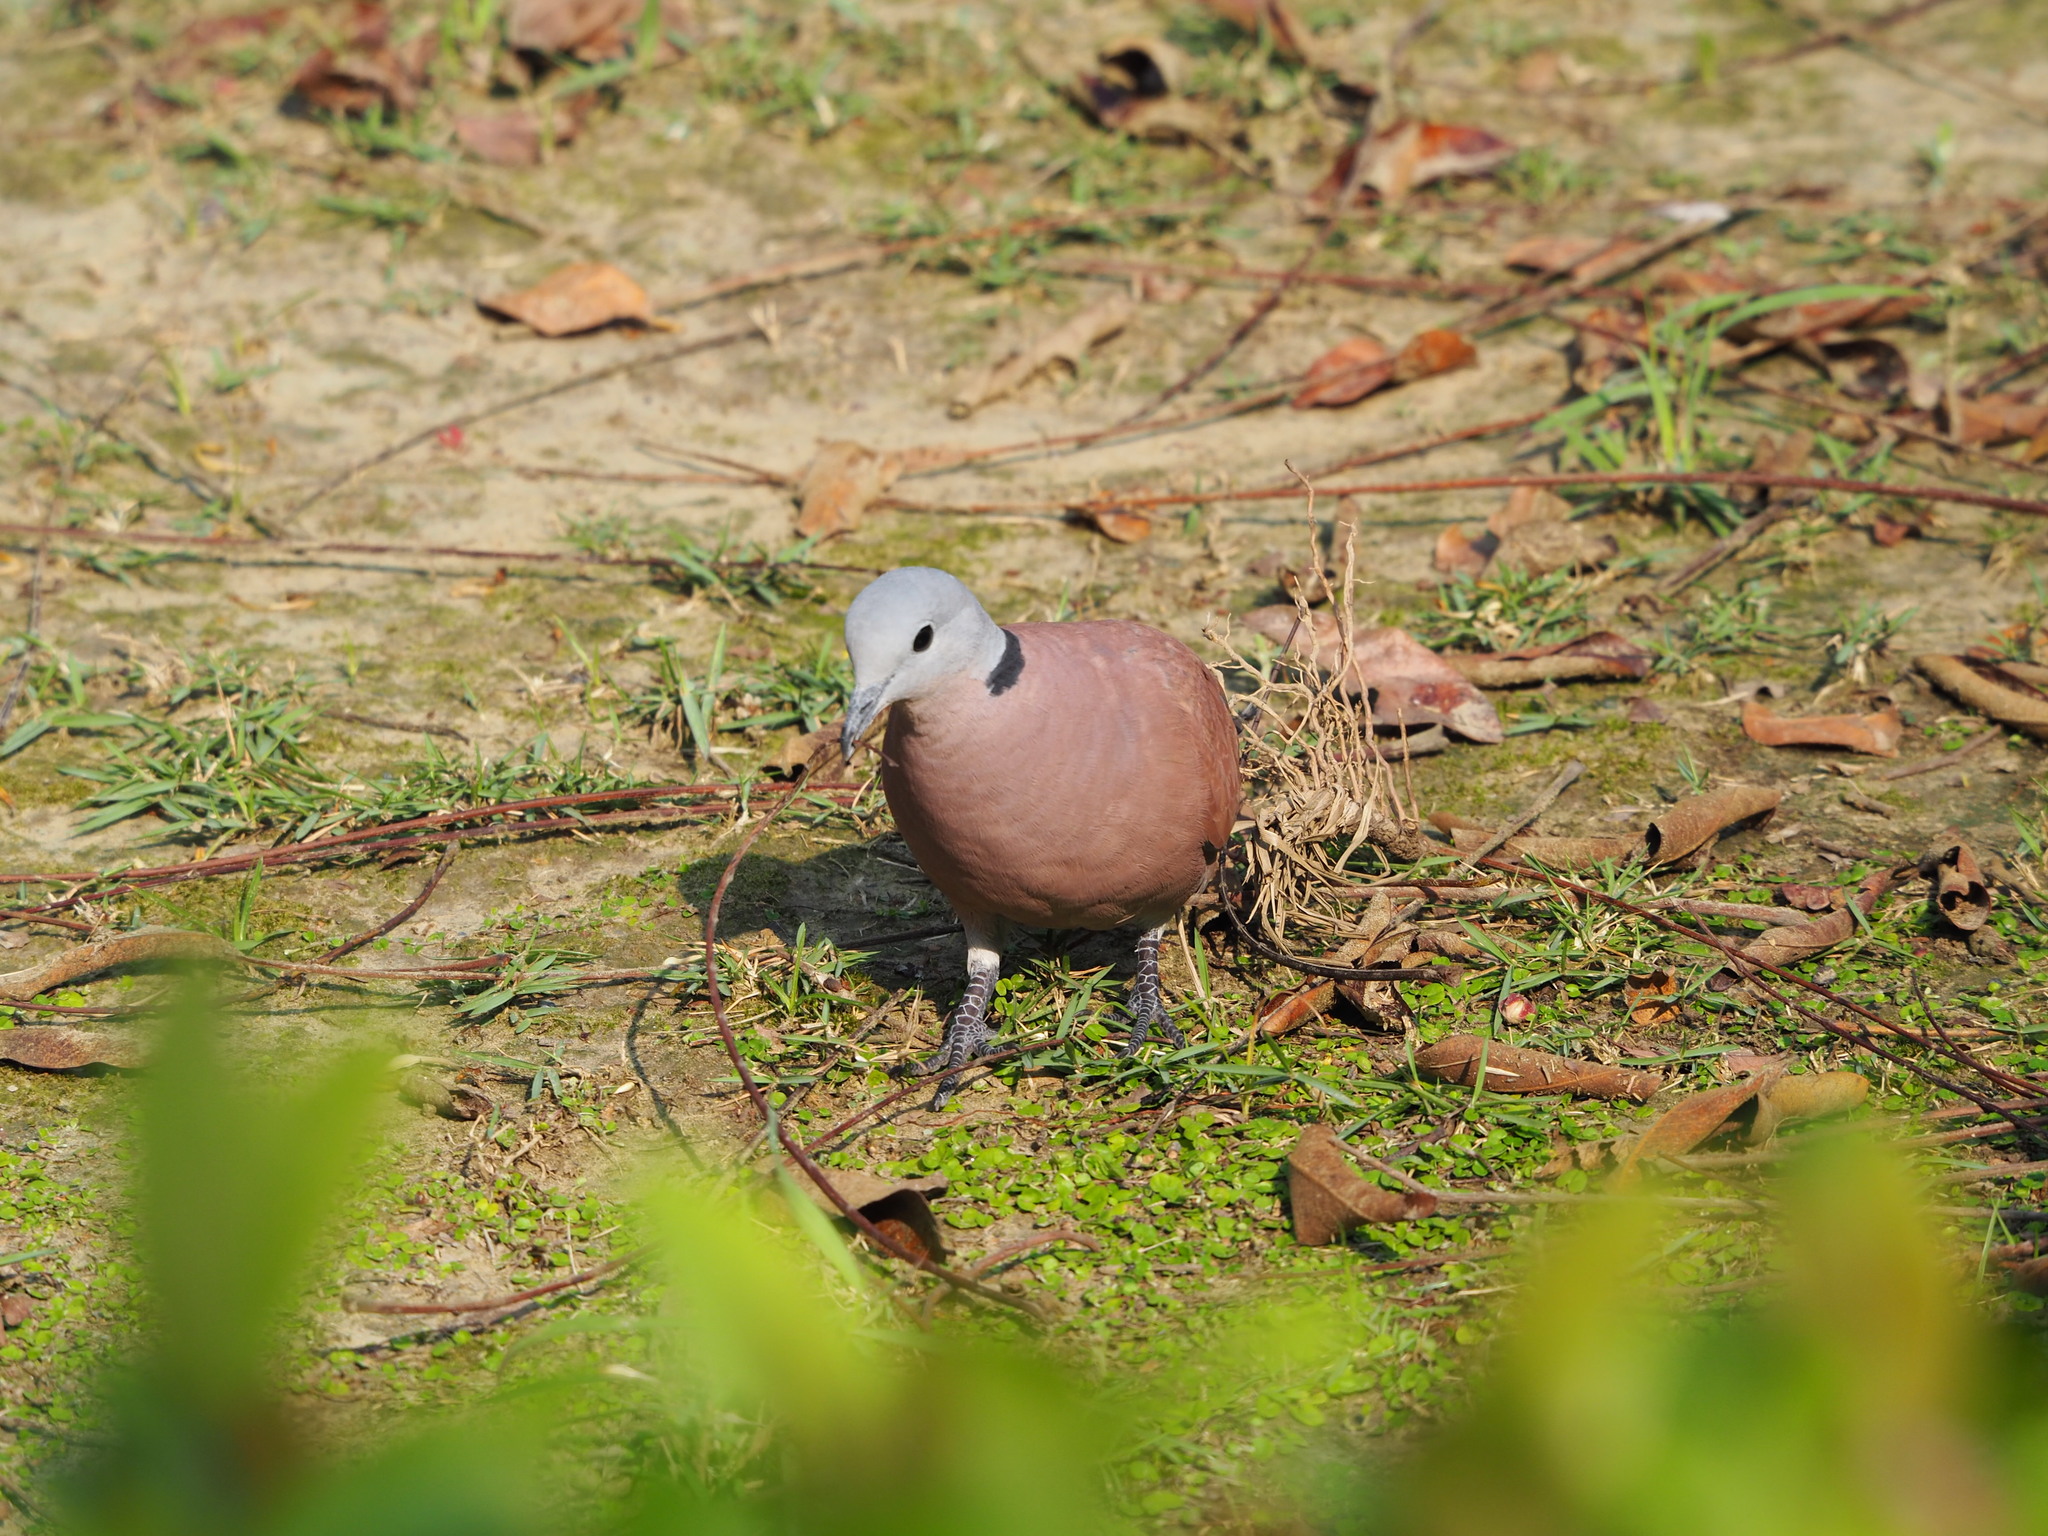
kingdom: Animalia
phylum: Chordata
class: Aves
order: Columbiformes
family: Columbidae
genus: Streptopelia
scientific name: Streptopelia tranquebarica
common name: Red turtle dove
